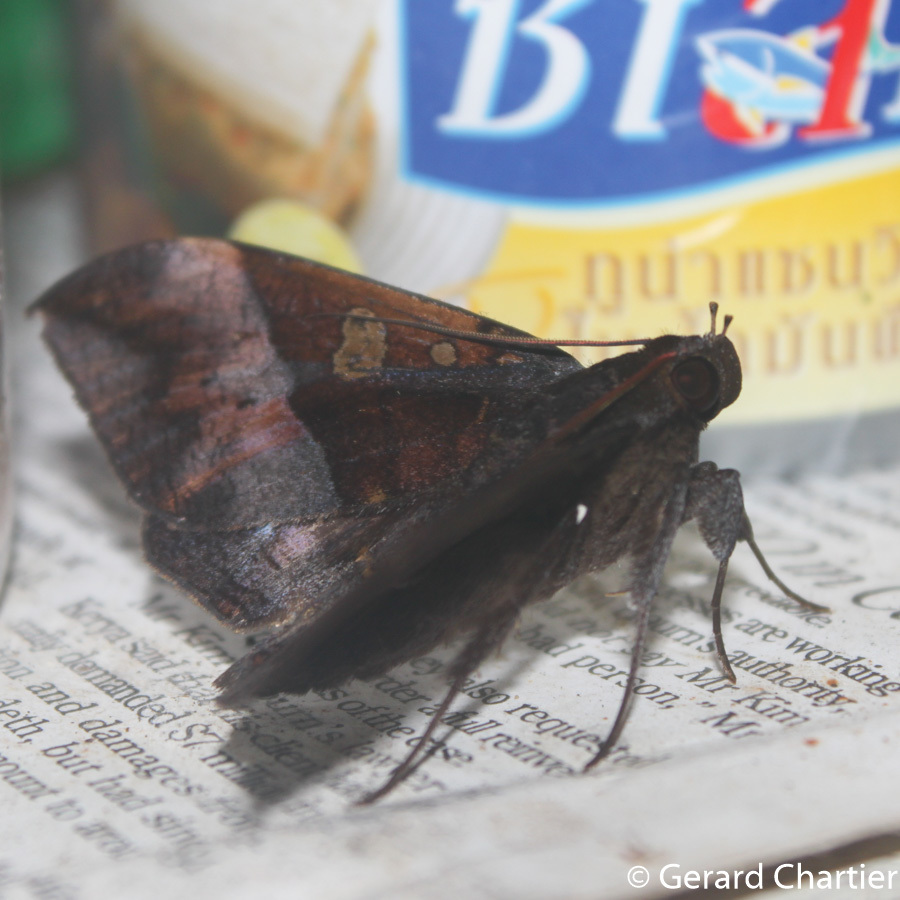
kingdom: Animalia
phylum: Arthropoda
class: Insecta
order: Lepidoptera
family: Erebidae
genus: Ischyja
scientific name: Ischyja paraplesius
